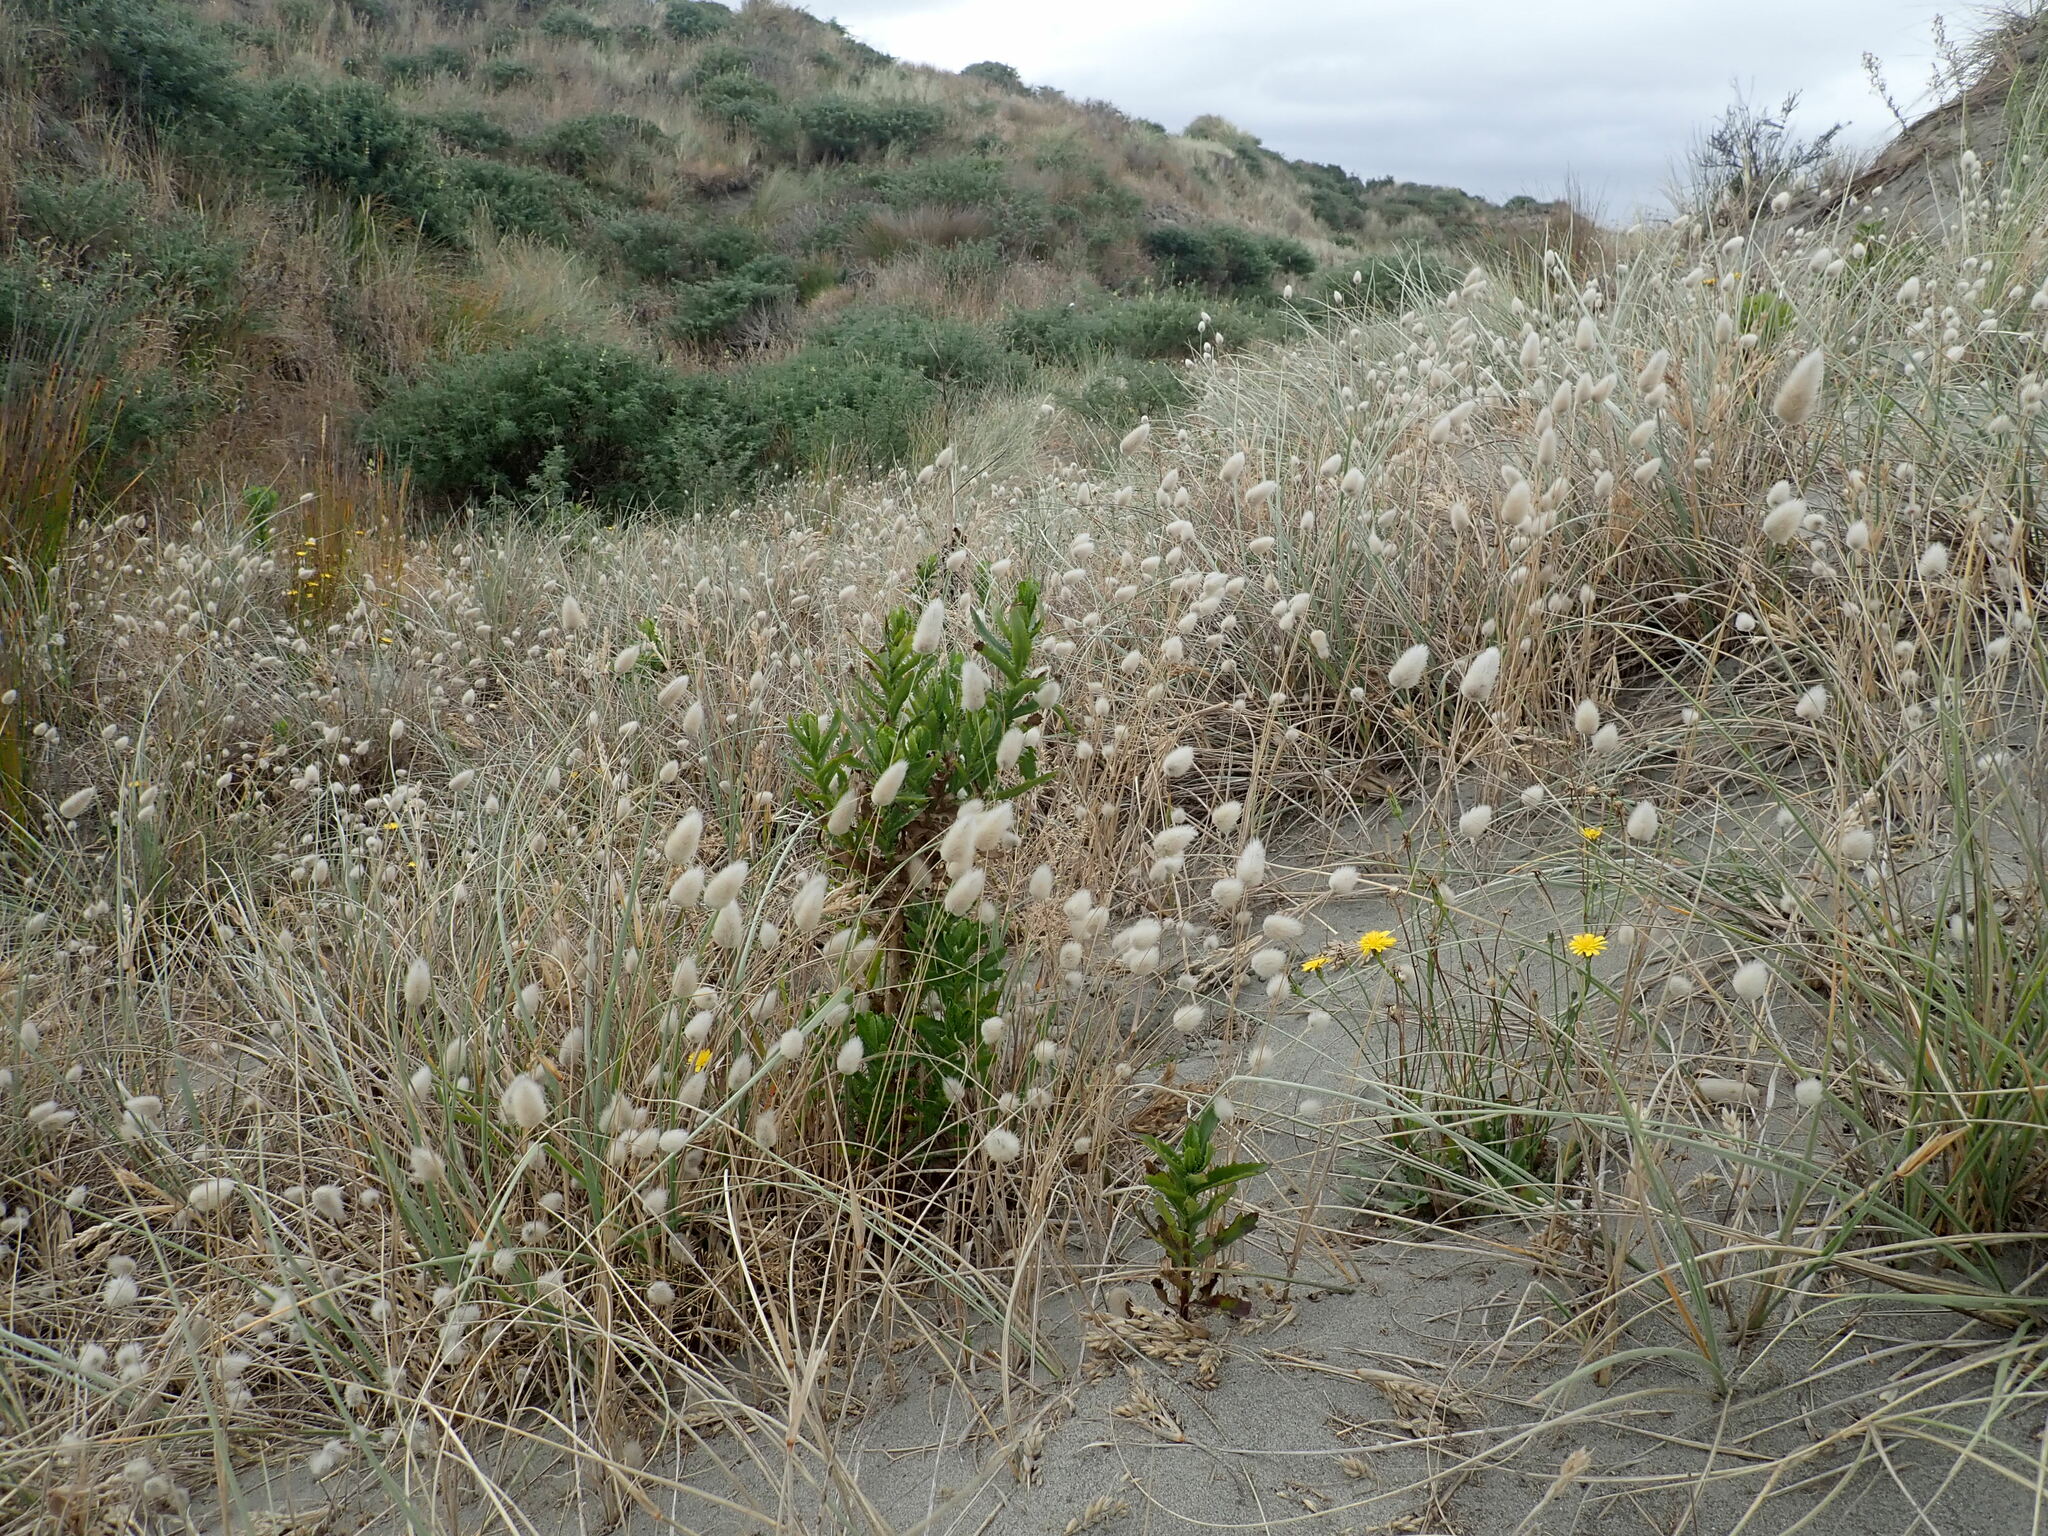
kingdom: Plantae
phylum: Tracheophyta
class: Liliopsida
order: Poales
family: Poaceae
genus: Lagurus
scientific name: Lagurus ovatus
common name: Hare's-tail
